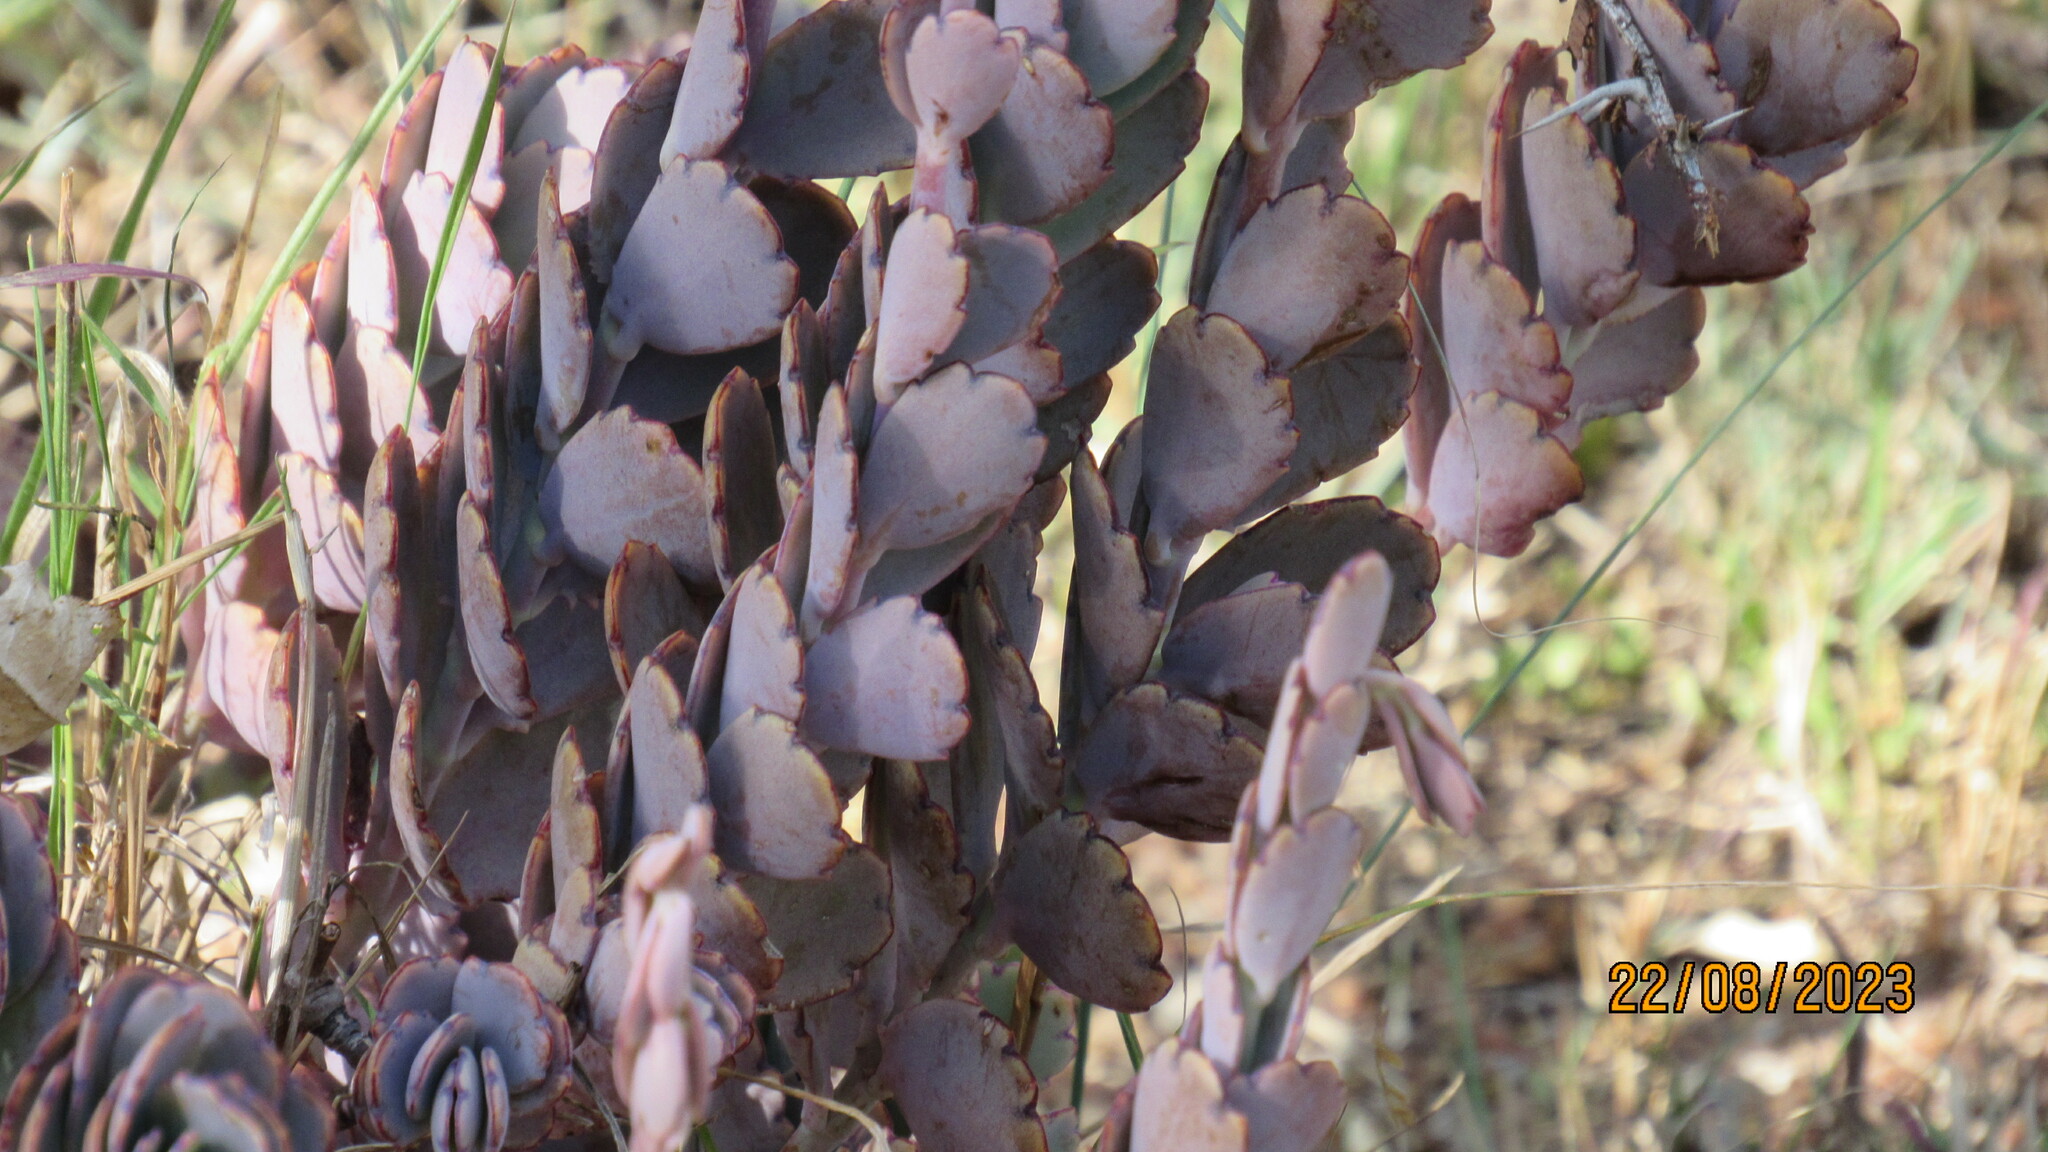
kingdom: Plantae
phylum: Tracheophyta
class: Magnoliopsida
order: Saxifragales
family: Crassulaceae
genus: Kalanchoe
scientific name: Kalanchoe fedtschenkoi
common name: Lavender scallops
